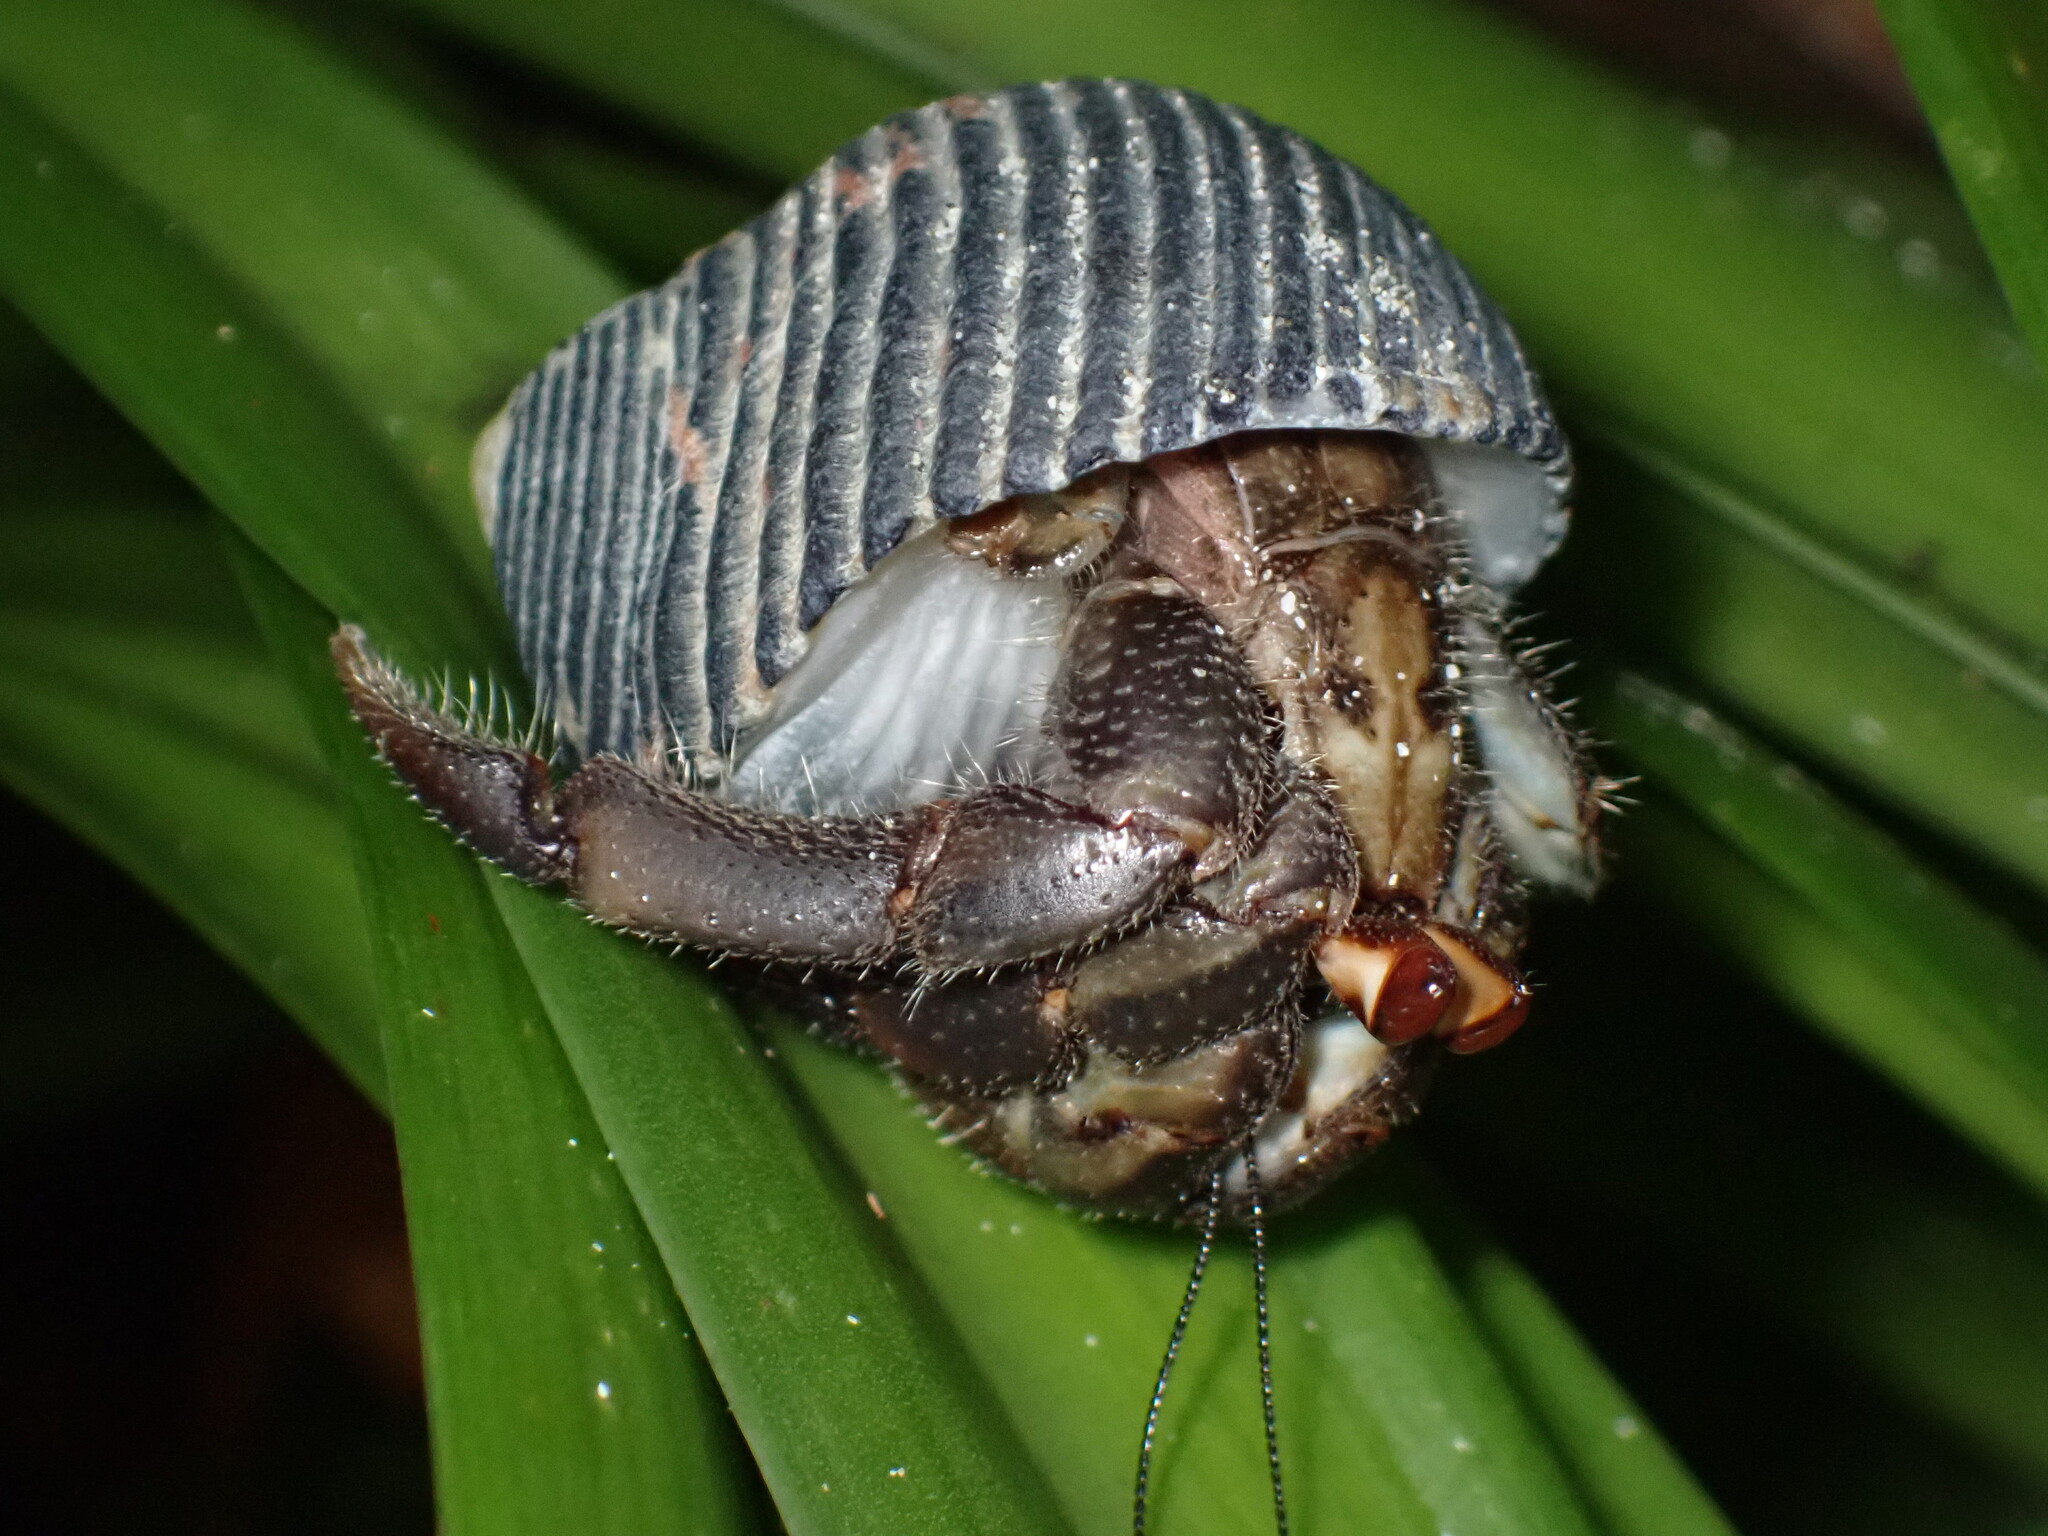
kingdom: Animalia
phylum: Arthropoda
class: Malacostraca
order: Decapoda
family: Coenobitidae
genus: Coenobita
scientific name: Coenobita compressus
